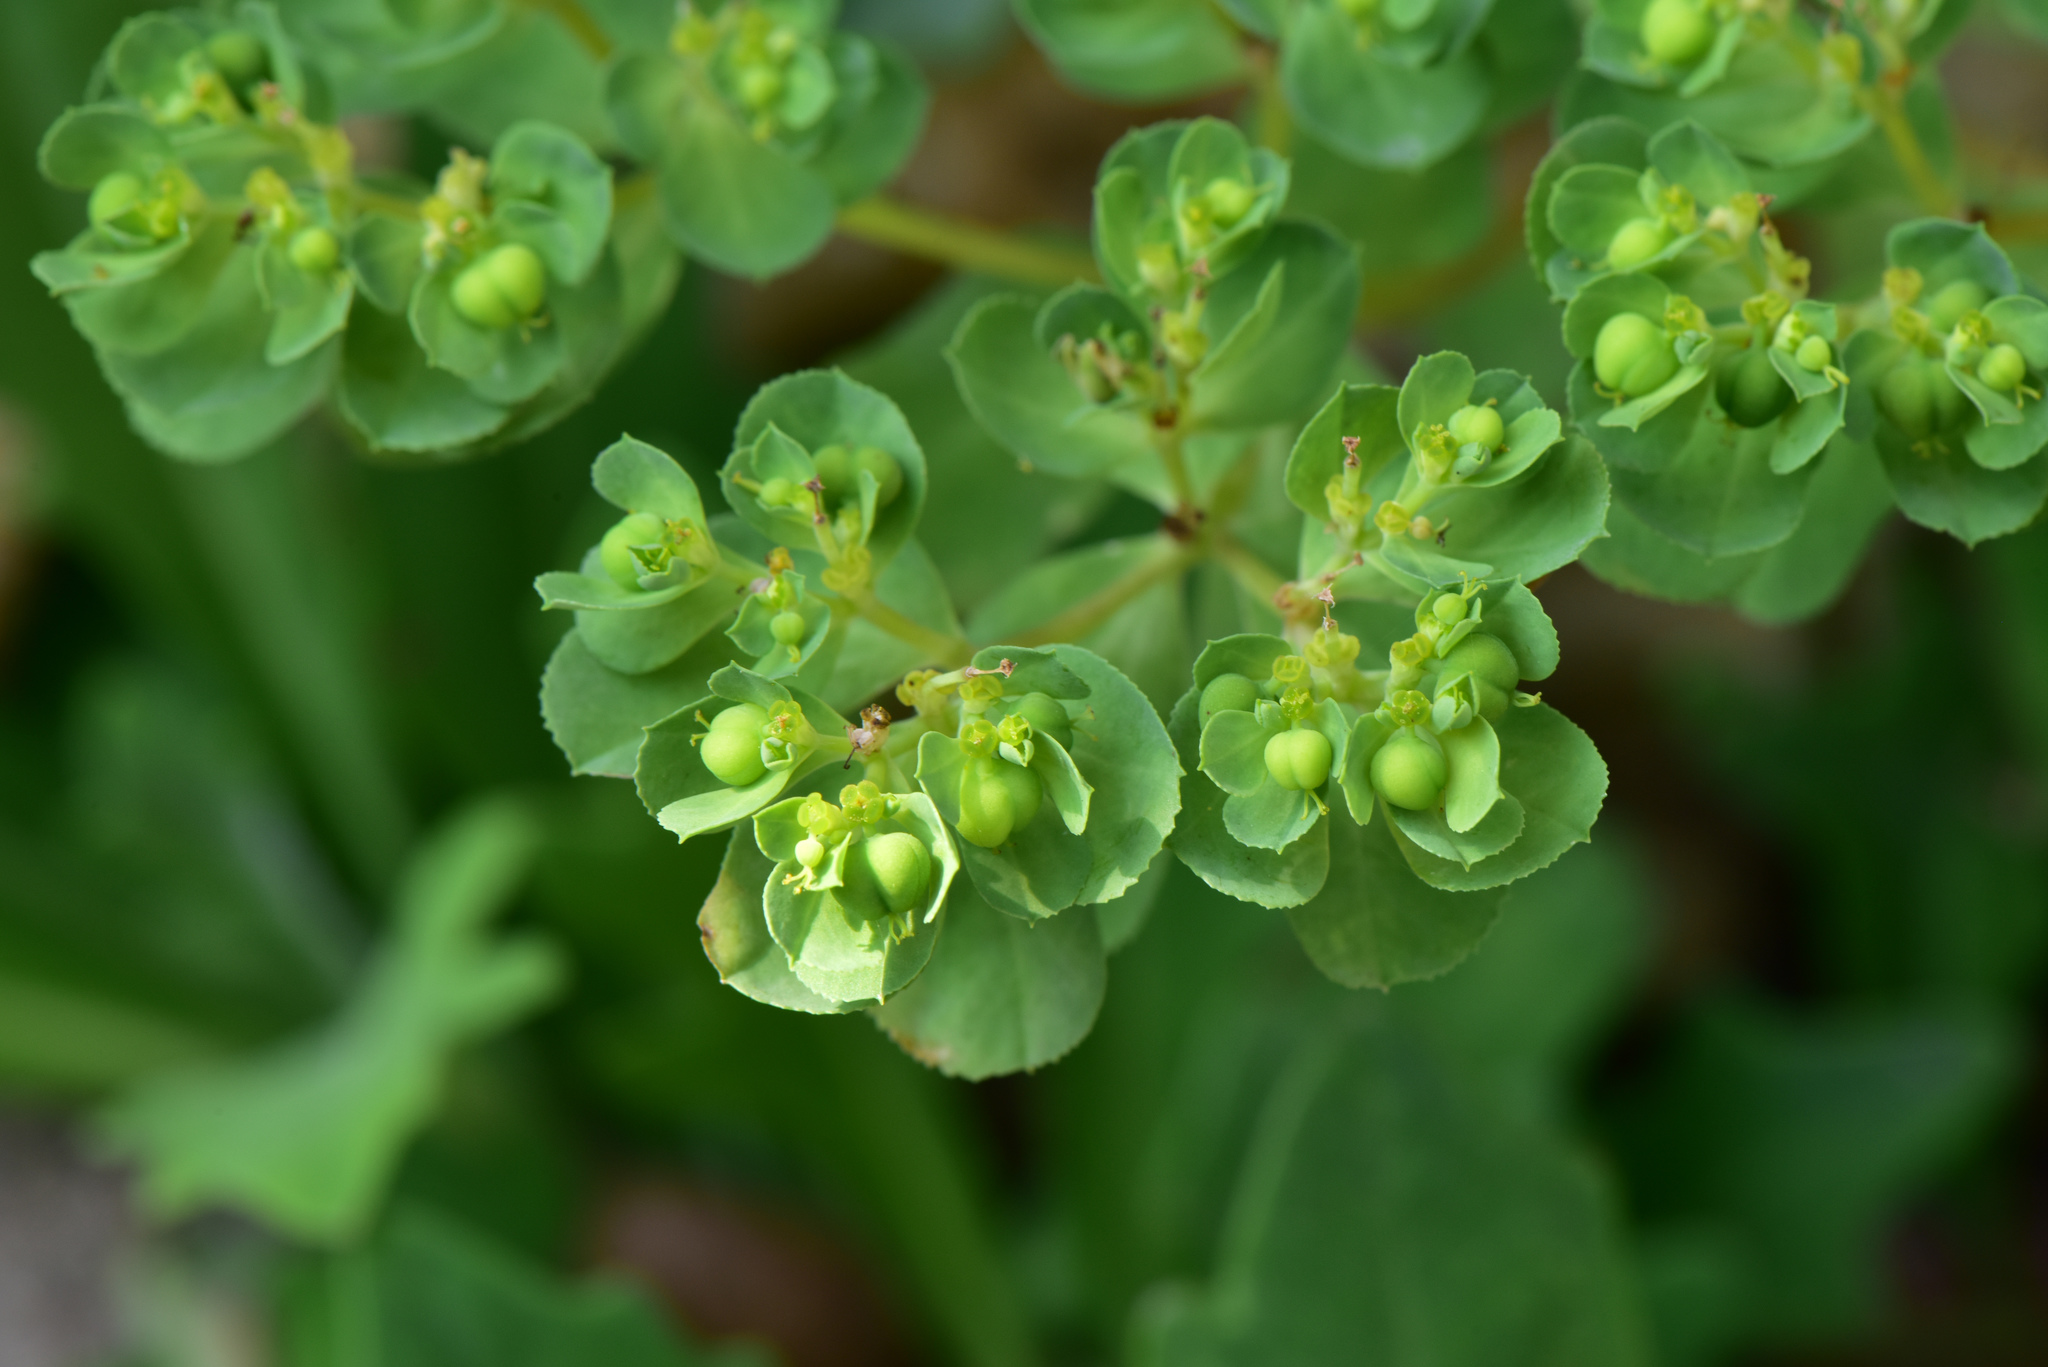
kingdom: Plantae
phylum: Tracheophyta
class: Magnoliopsida
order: Malpighiales
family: Euphorbiaceae
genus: Euphorbia
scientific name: Euphorbia helioscopia
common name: Sun spurge
